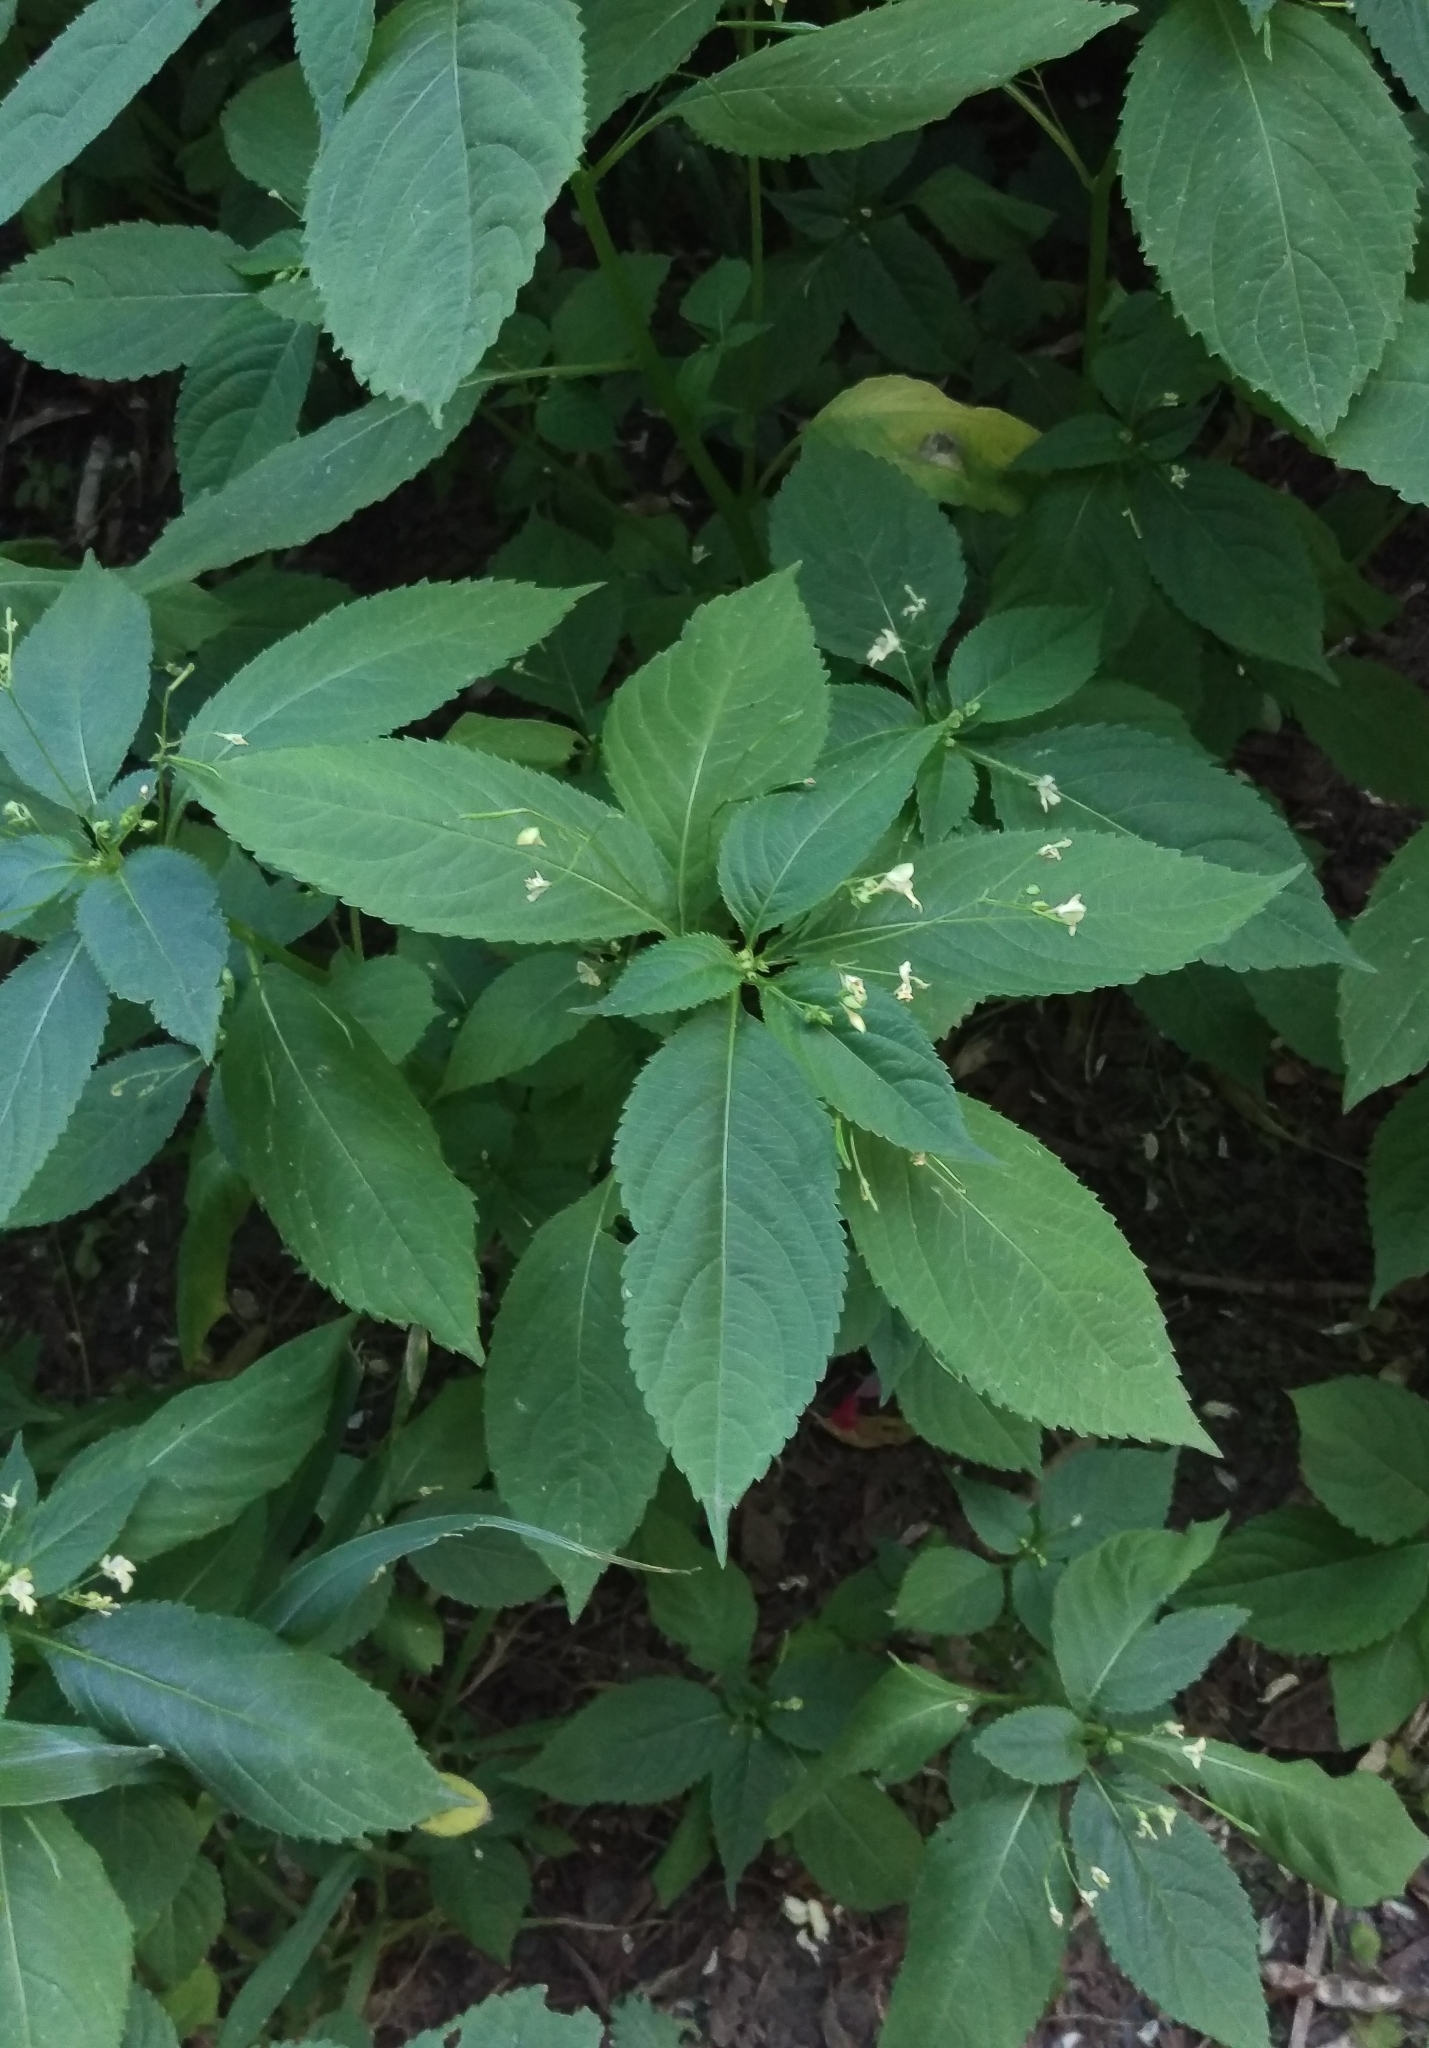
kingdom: Plantae
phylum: Tracheophyta
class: Magnoliopsida
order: Ericales
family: Balsaminaceae
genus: Impatiens
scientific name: Impatiens parviflora
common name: Small balsam
